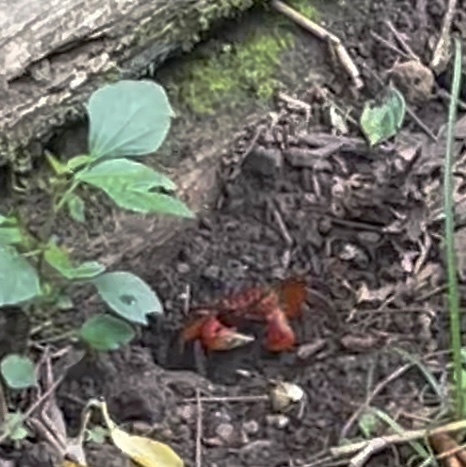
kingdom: Animalia
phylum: Arthropoda
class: Malacostraca
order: Decapoda
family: Sesarmidae
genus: Chiromantes
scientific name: Chiromantes haematocheir
